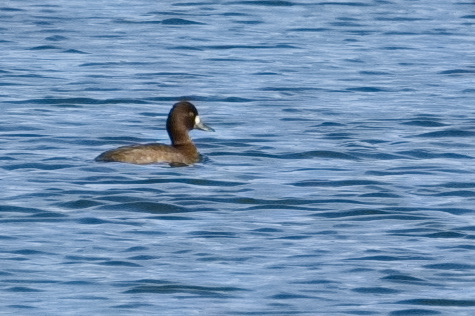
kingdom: Animalia
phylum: Chordata
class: Aves
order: Anseriformes
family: Anatidae
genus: Aythya
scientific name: Aythya affinis
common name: Lesser scaup
